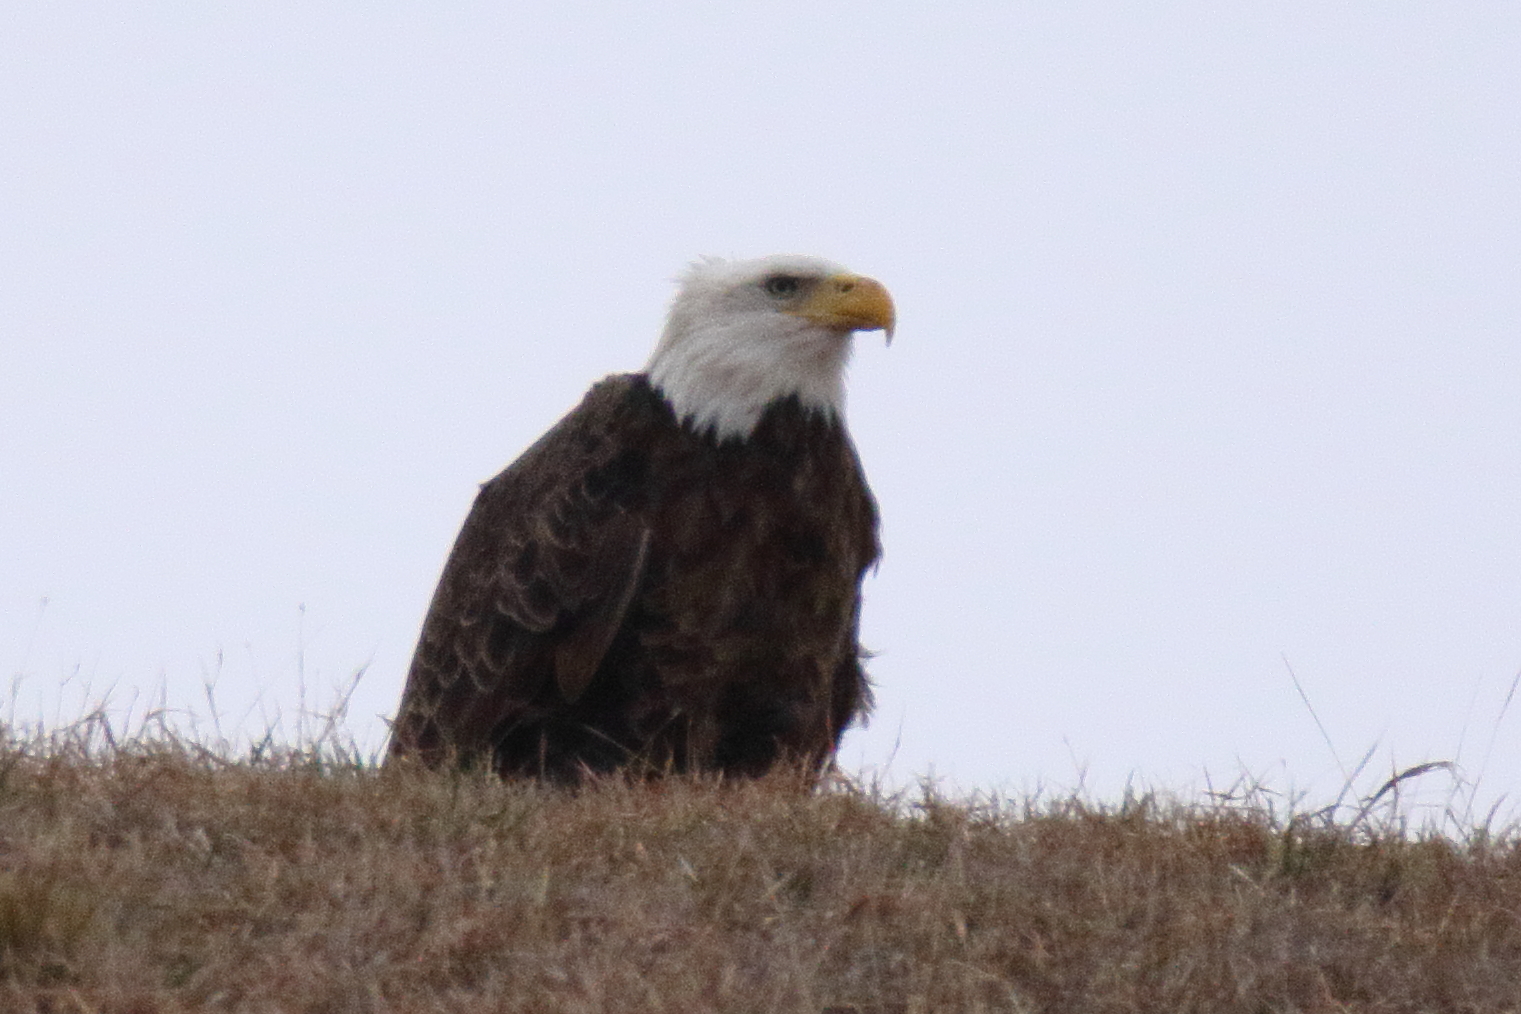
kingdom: Animalia
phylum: Chordata
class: Aves
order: Accipitriformes
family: Accipitridae
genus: Haliaeetus
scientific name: Haliaeetus leucocephalus
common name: Bald eagle
